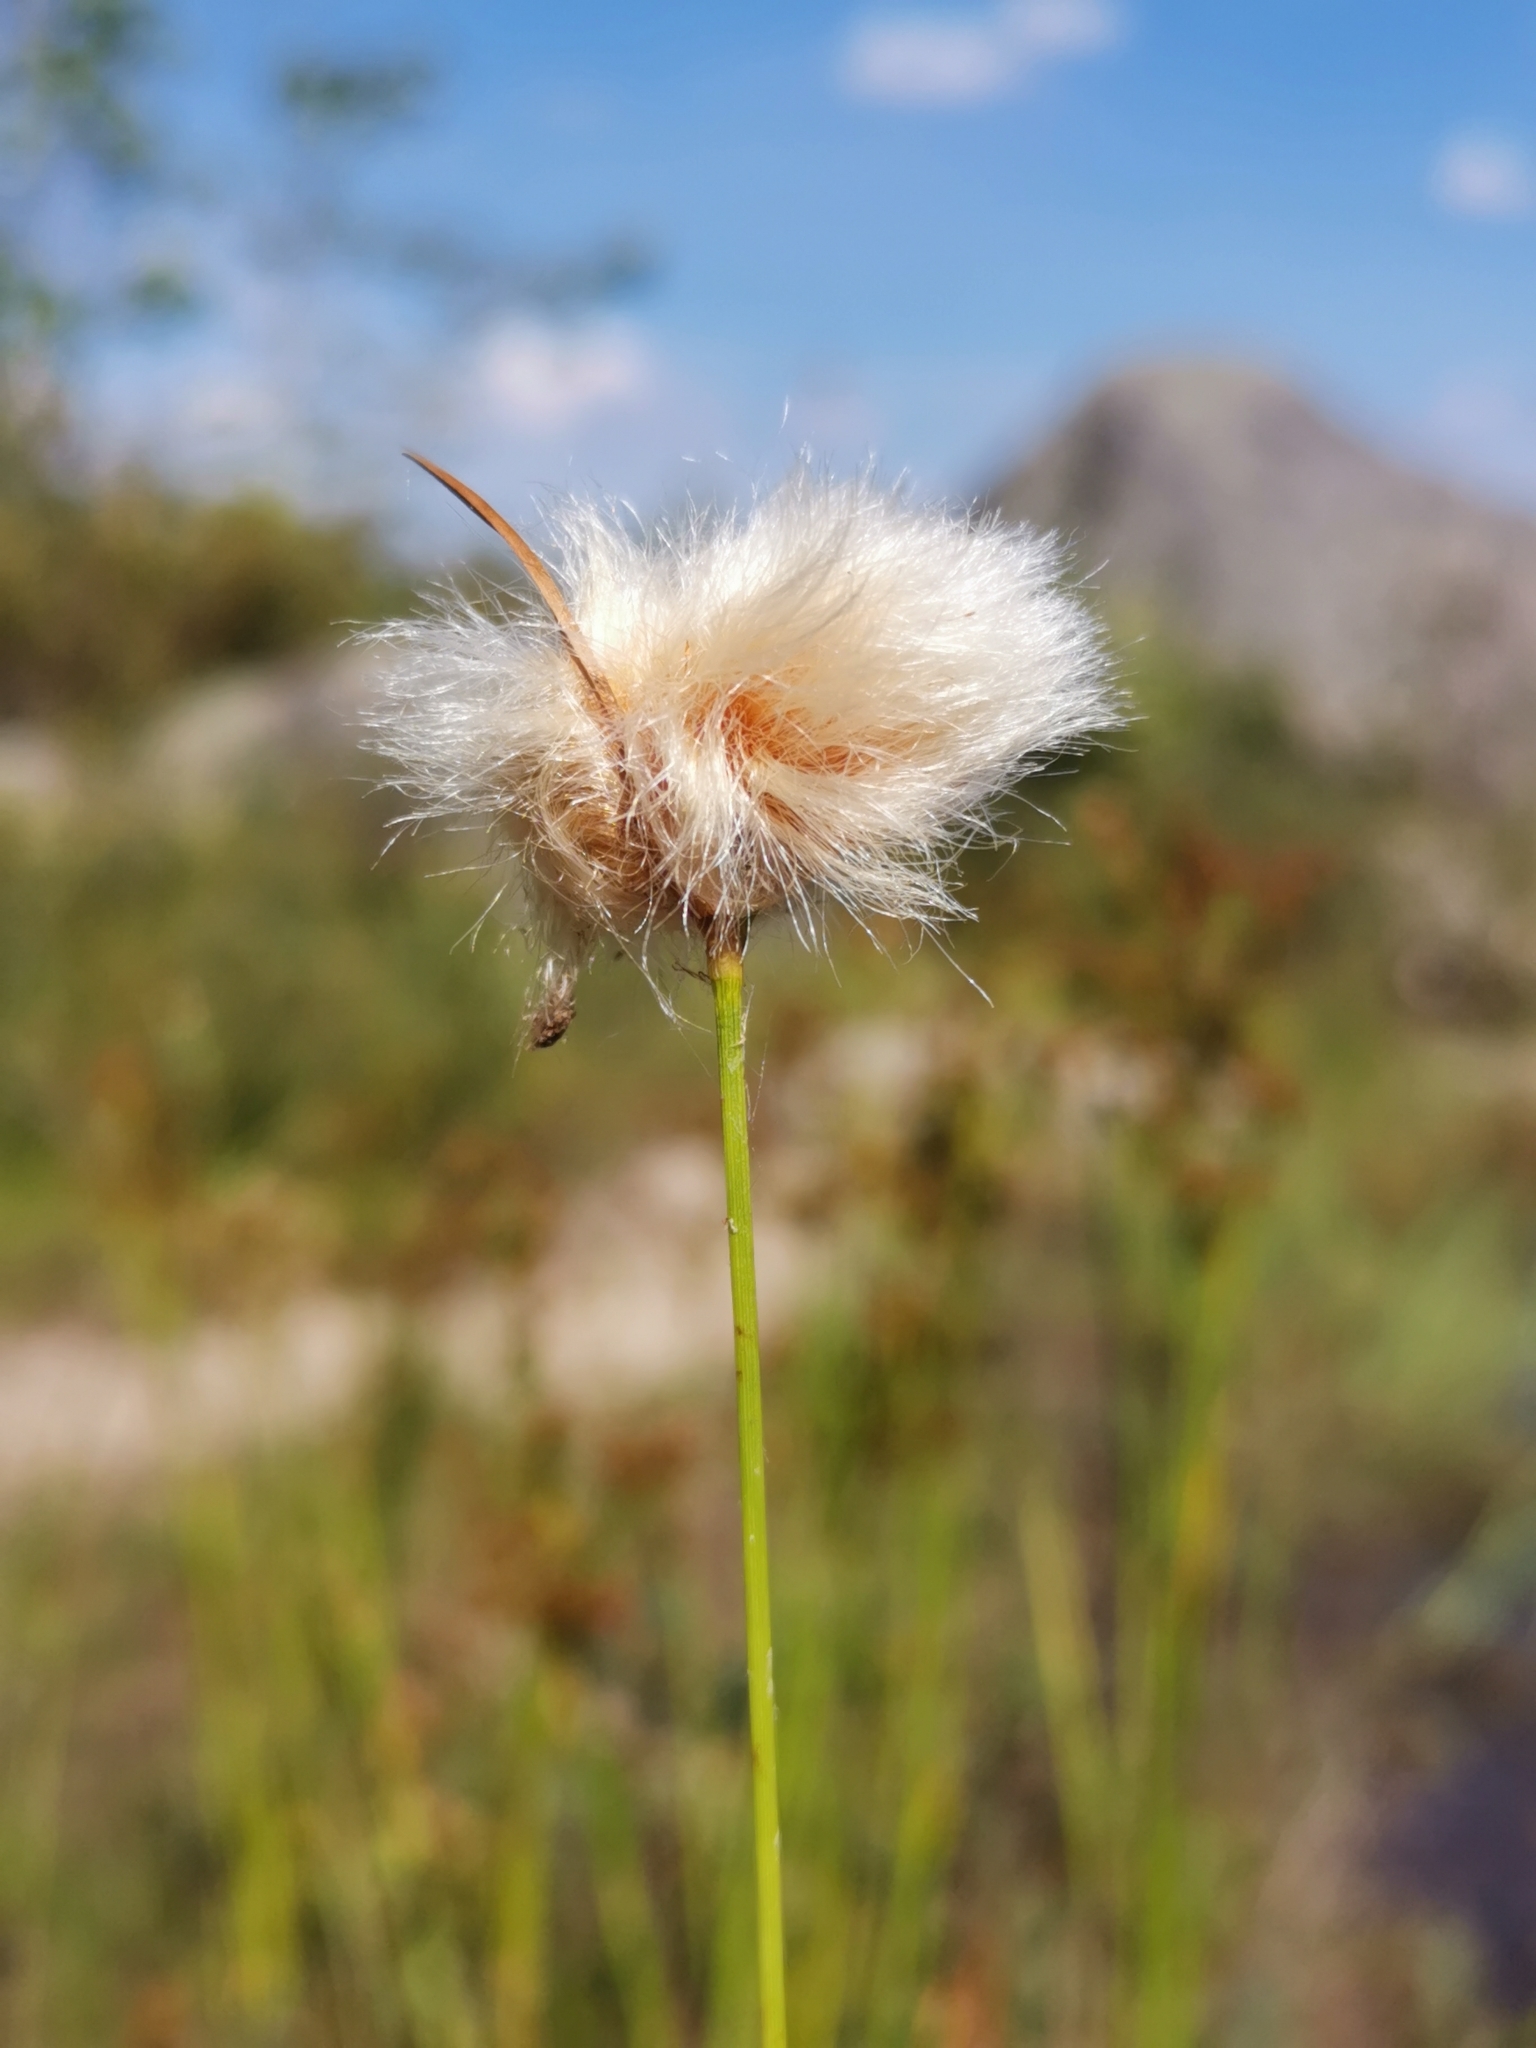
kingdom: Plantae
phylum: Tracheophyta
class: Liliopsida
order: Poales
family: Cyperaceae
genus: Eriophorum
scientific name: Eriophorum virginicum
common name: Tawny cottongrass
